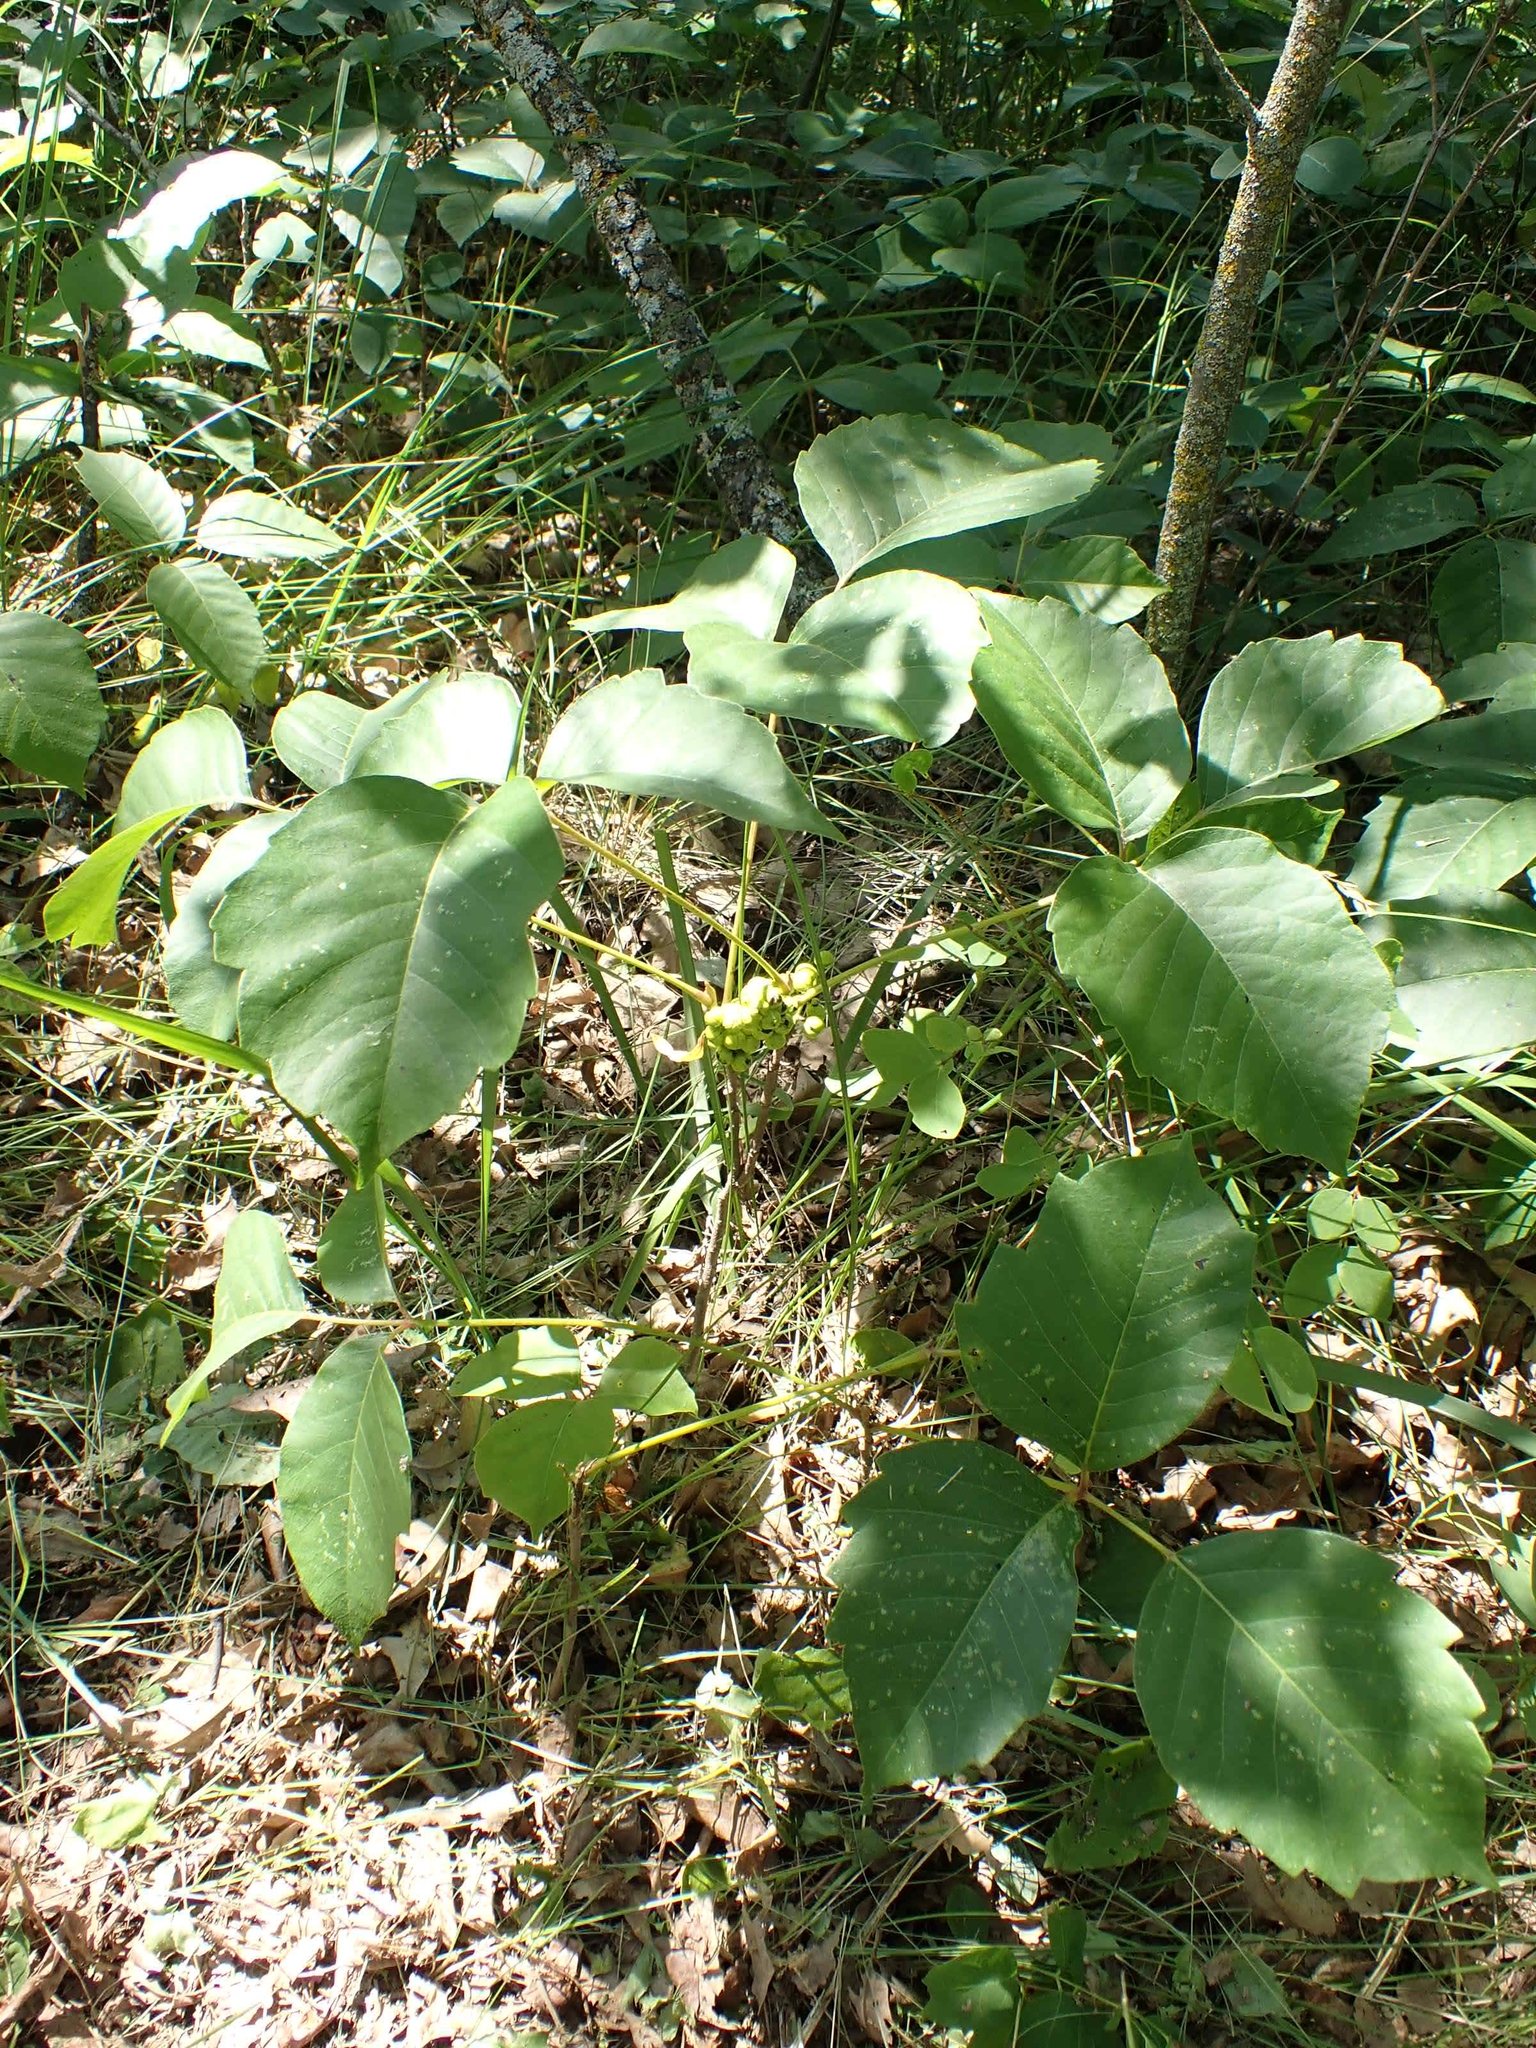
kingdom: Plantae
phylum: Tracheophyta
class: Magnoliopsida
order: Sapindales
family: Anacardiaceae
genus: Toxicodendron
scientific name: Toxicodendron rydbergii
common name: Rydberg's poison-ivy
